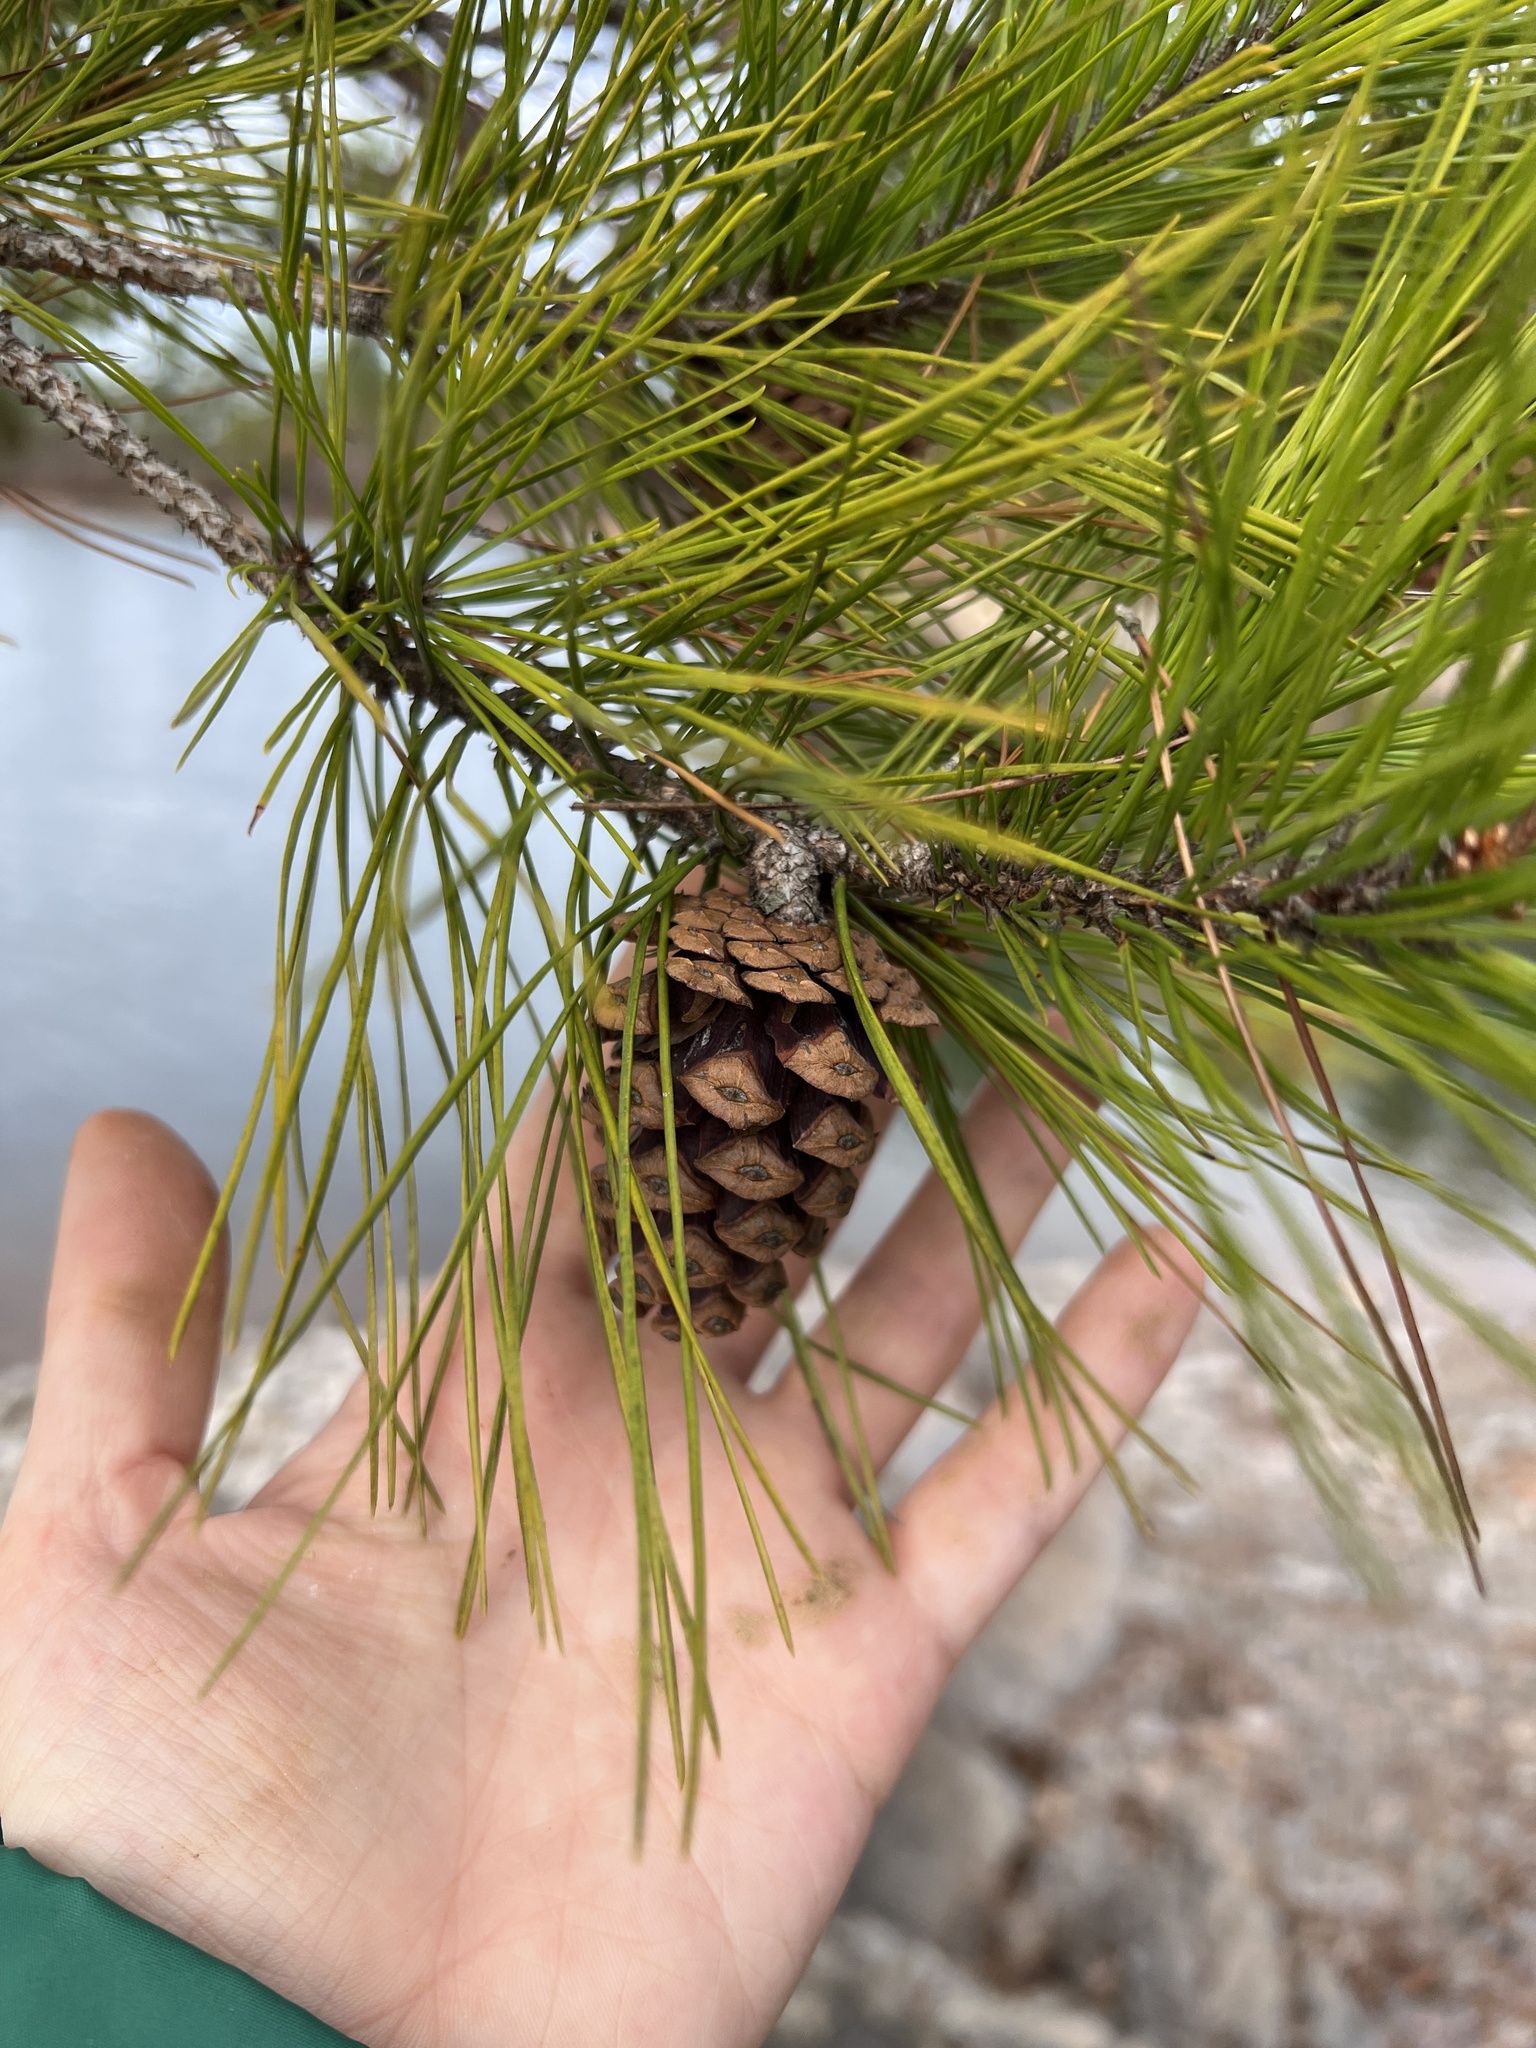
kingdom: Plantae
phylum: Tracheophyta
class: Pinopsida
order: Pinales
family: Pinaceae
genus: Pinus
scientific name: Pinus echinata
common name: Shortleaf pine
